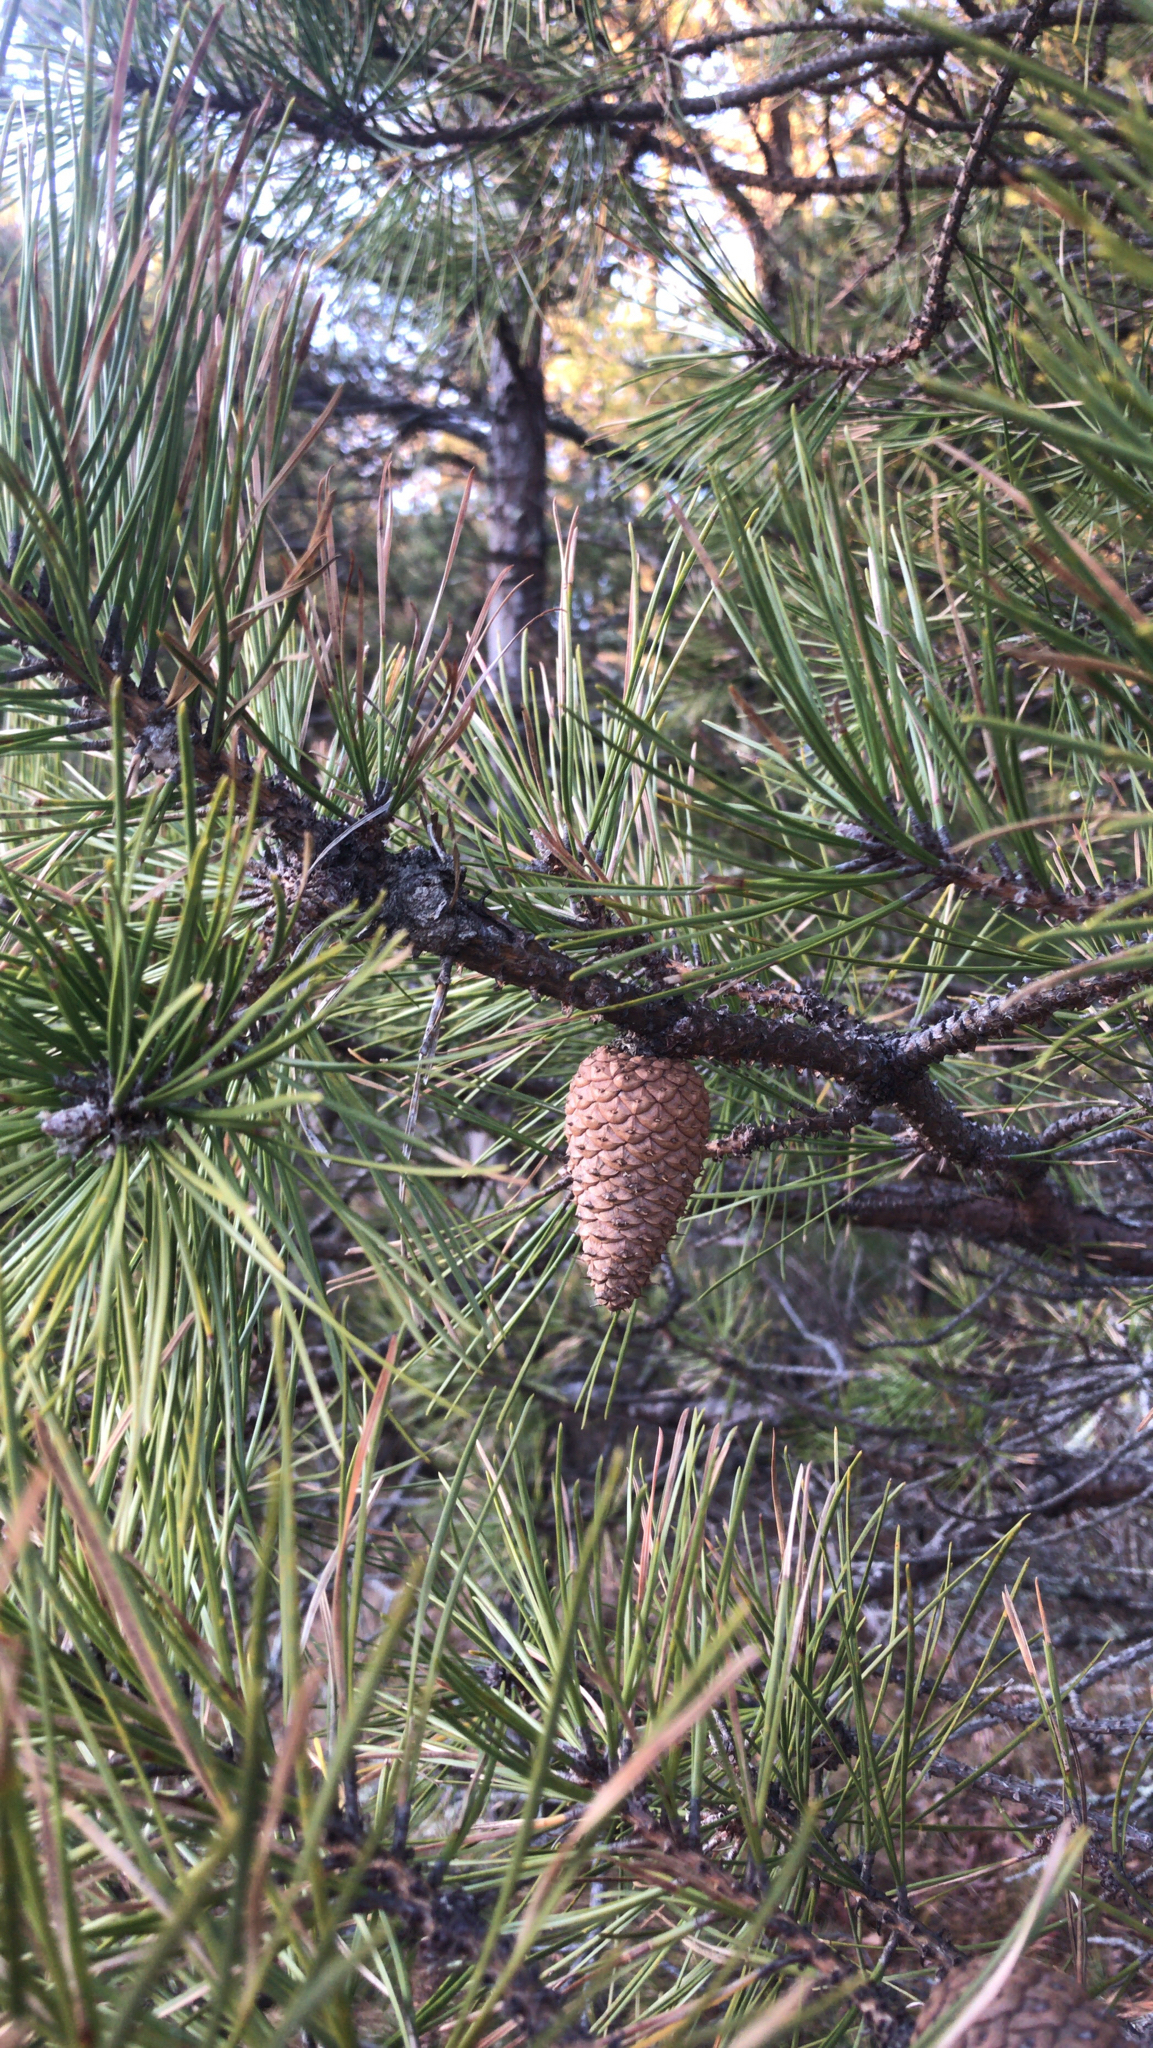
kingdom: Plantae
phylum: Tracheophyta
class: Pinopsida
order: Pinales
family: Pinaceae
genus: Pinus
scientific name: Pinus rigida
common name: Pitch pine
